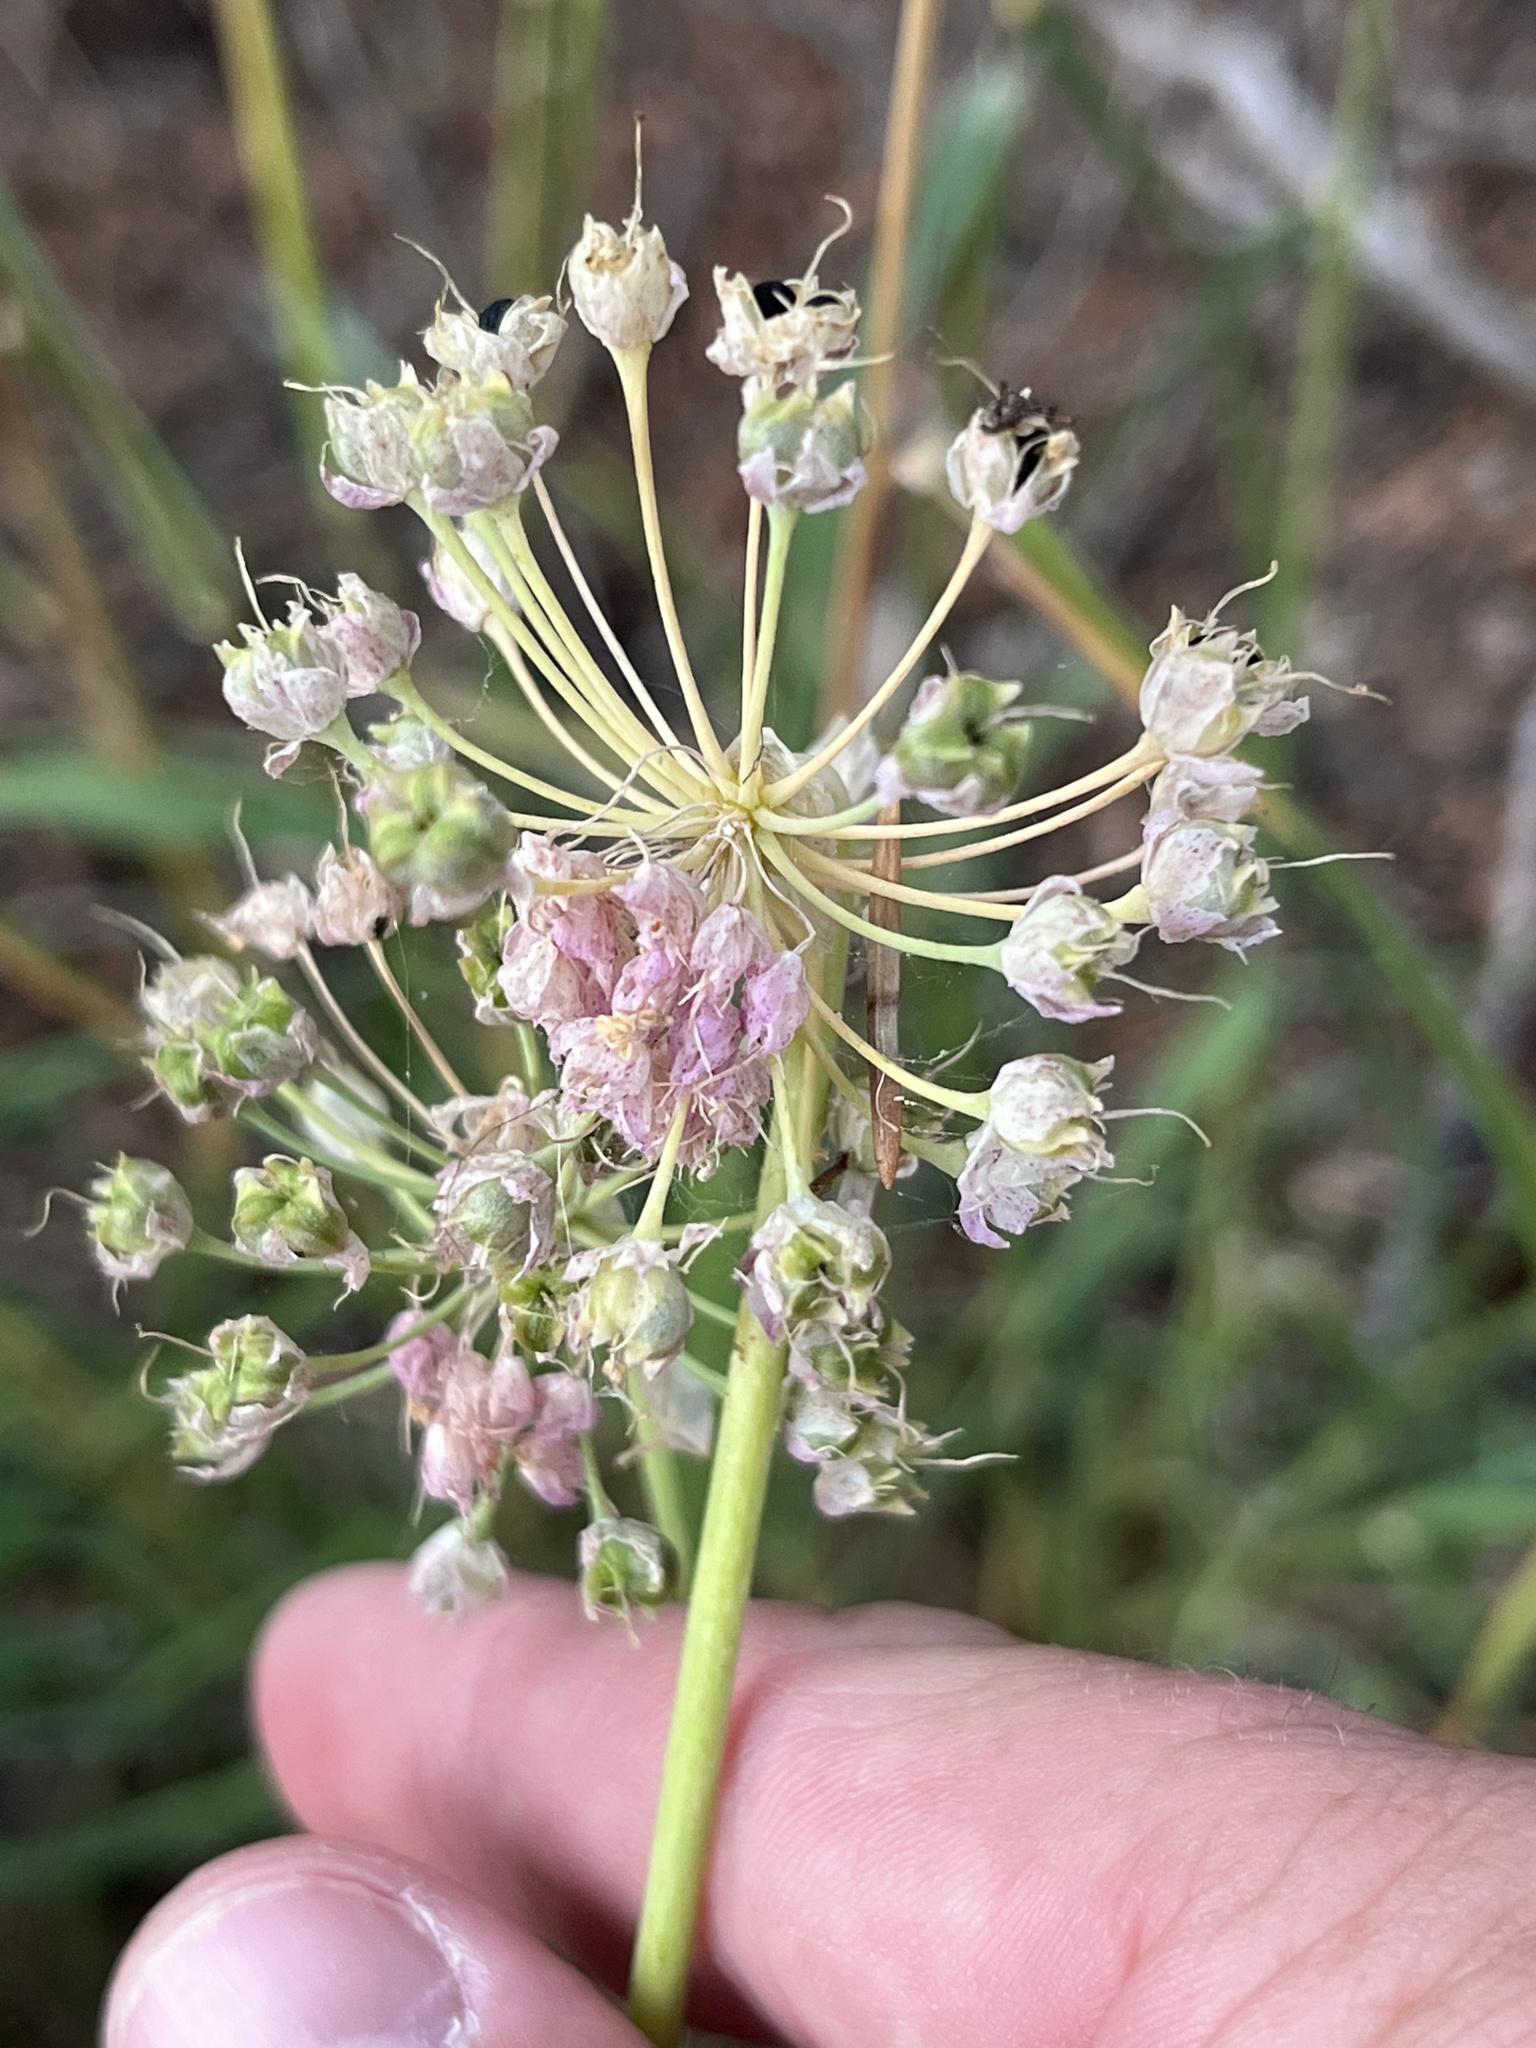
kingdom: Plantae
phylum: Tracheophyta
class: Liliopsida
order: Asparagales
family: Amaryllidaceae
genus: Allium
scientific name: Allium cernuum
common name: Nodding onion
